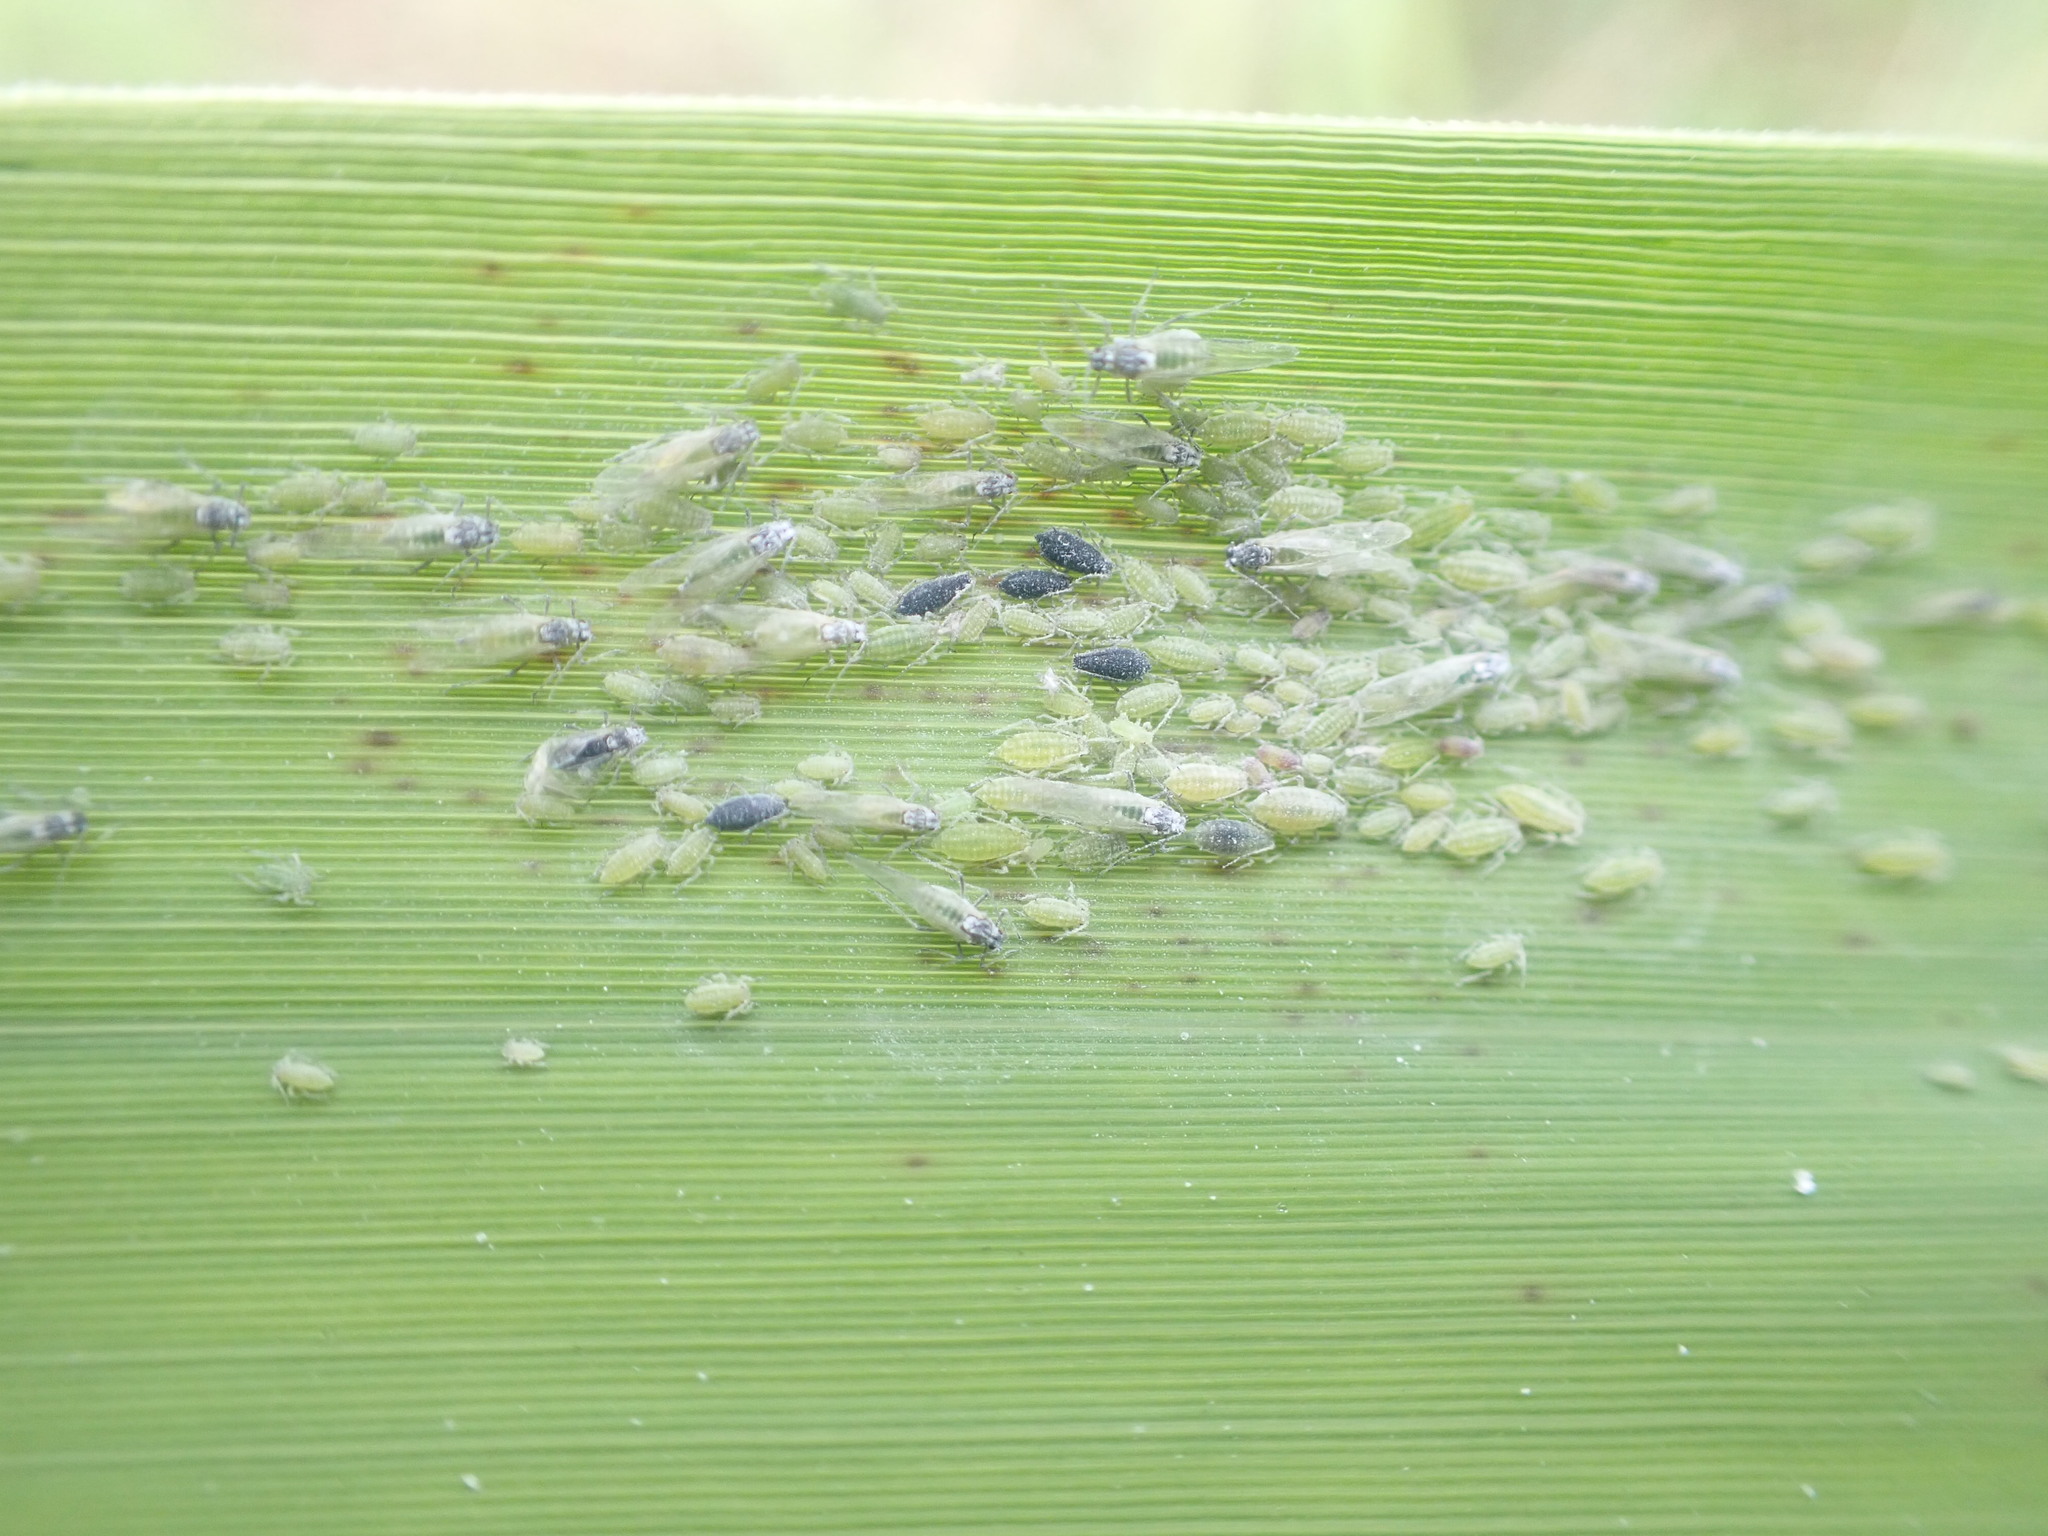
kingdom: Animalia
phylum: Arthropoda
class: Insecta
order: Hemiptera
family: Aphididae
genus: Hyalopterus
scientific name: Hyalopterus
